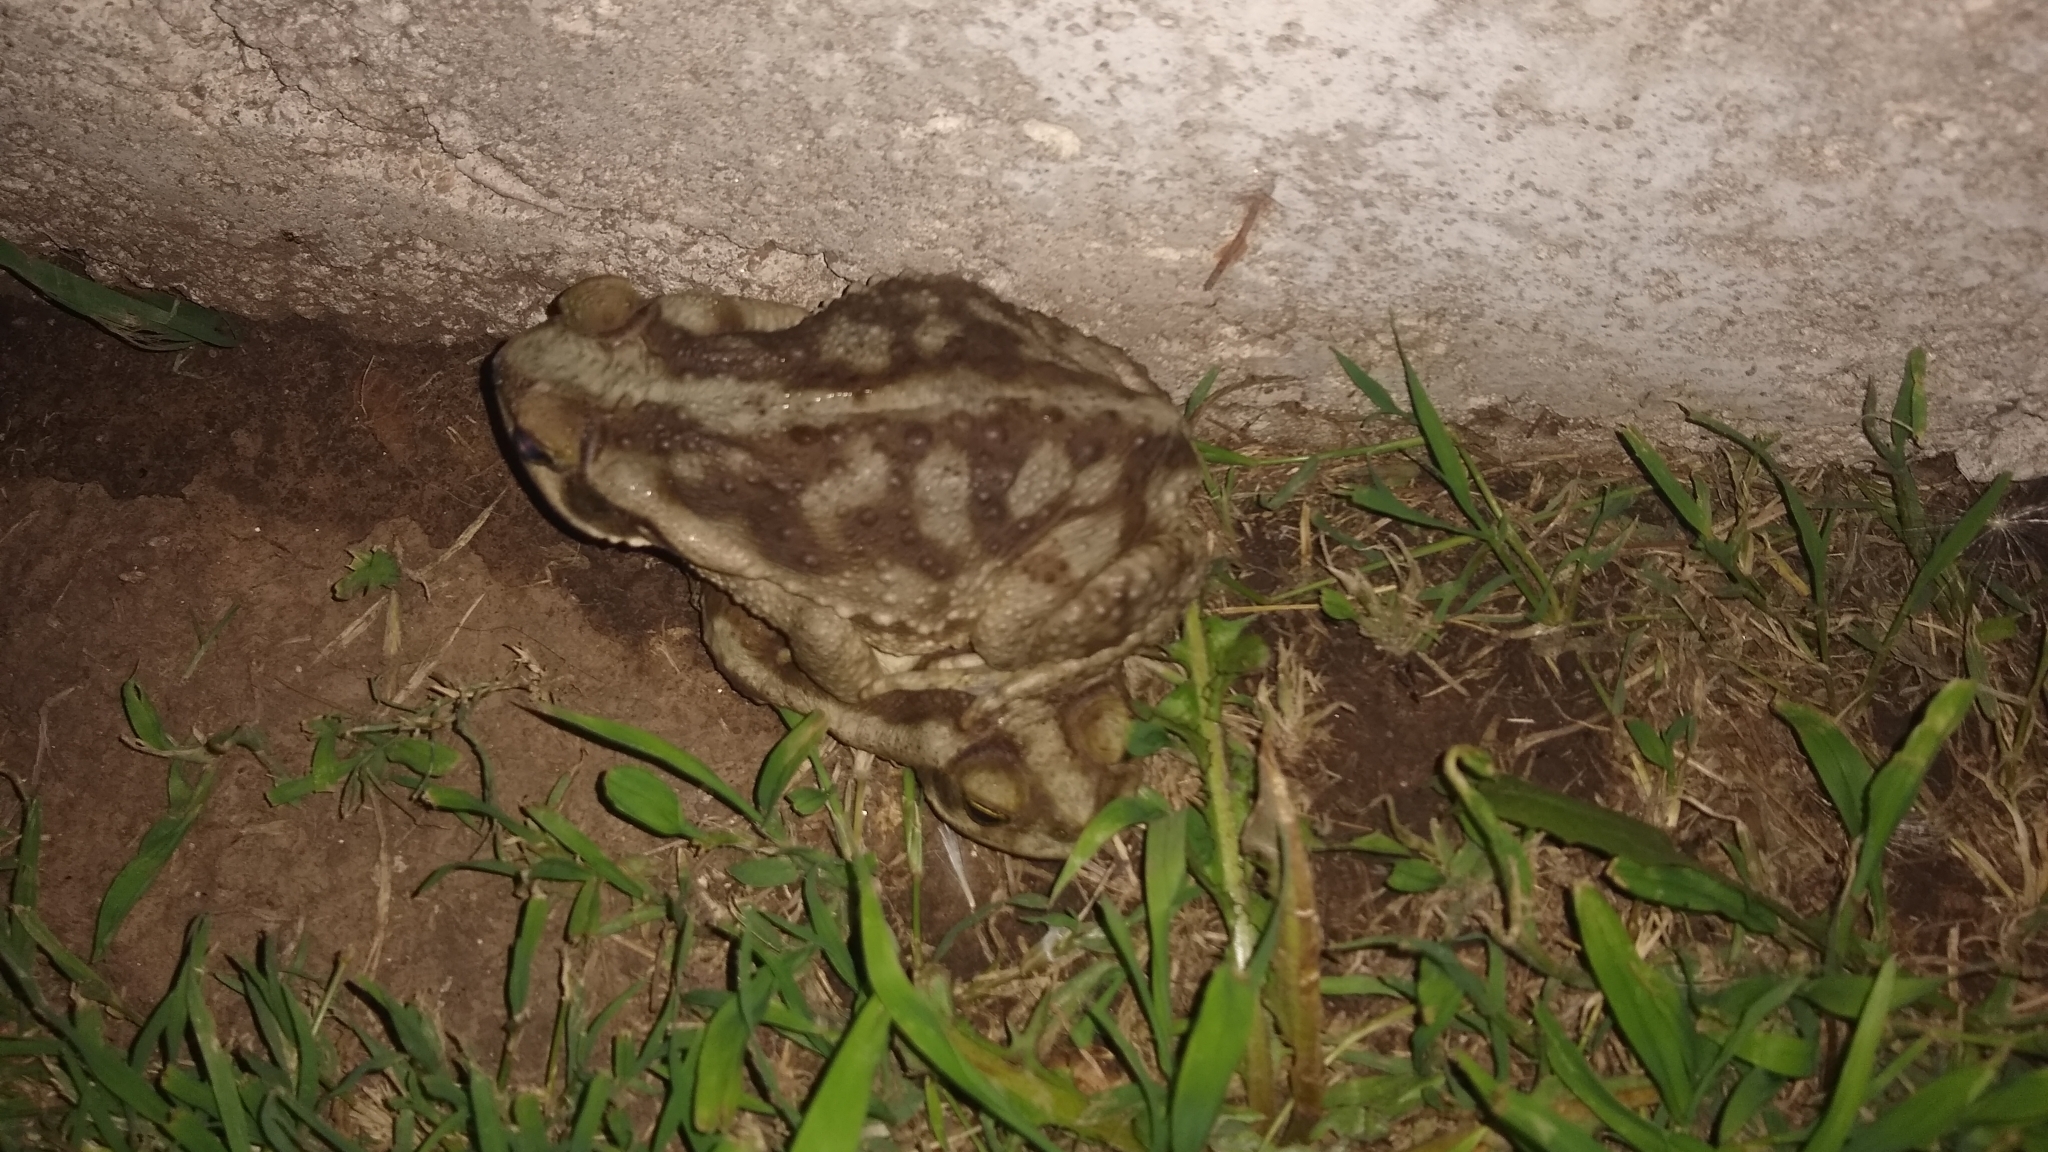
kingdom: Animalia
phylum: Chordata
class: Amphibia
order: Anura
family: Bufonidae
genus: Rhinella
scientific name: Rhinella arenarum
